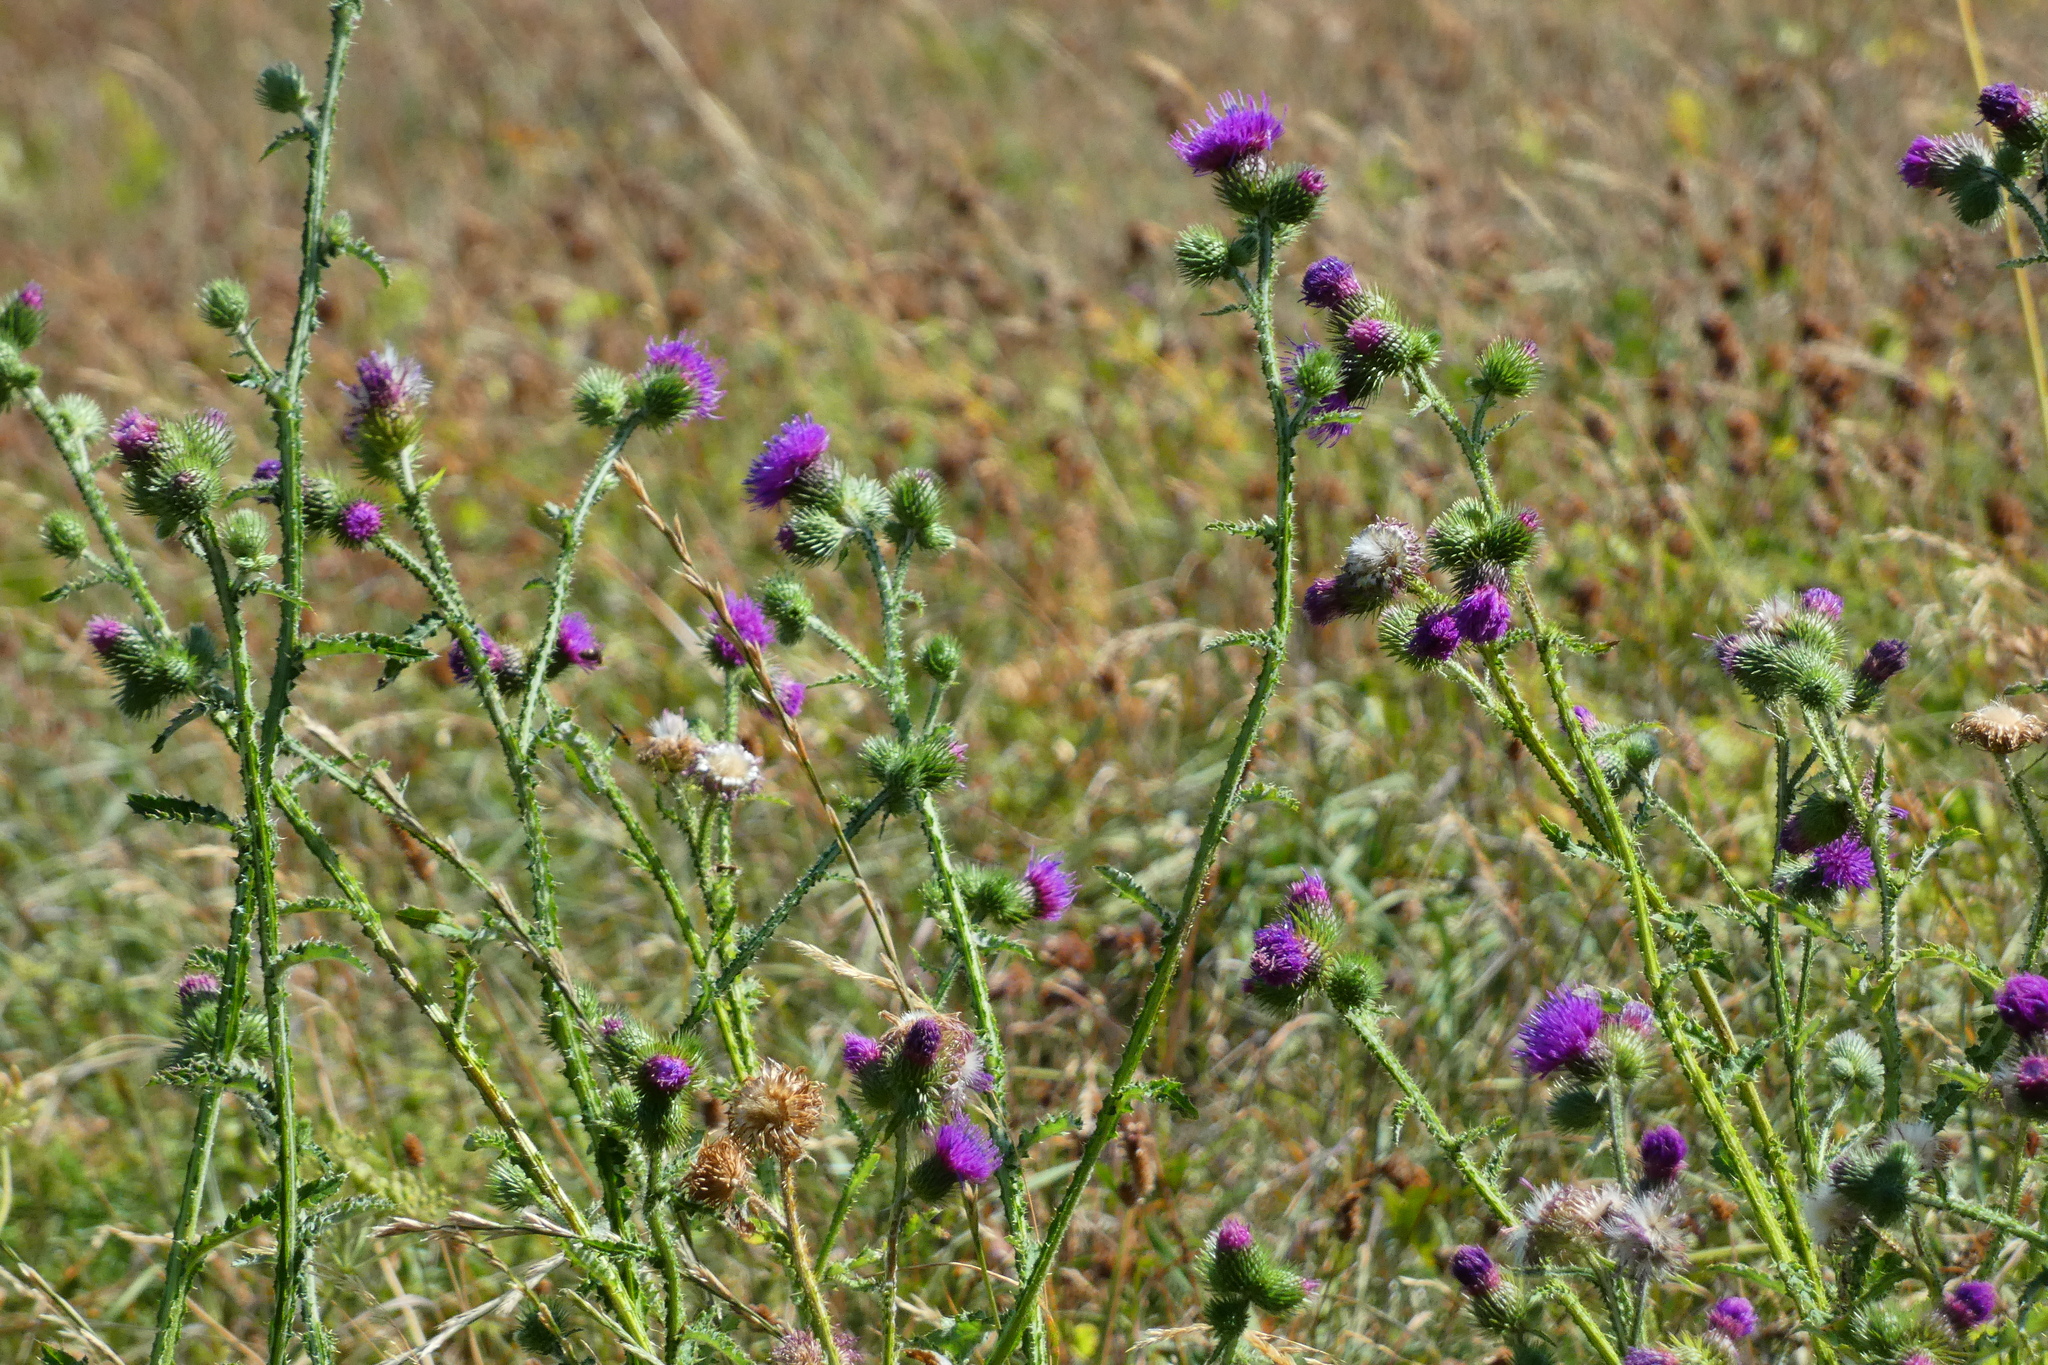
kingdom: Plantae
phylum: Tracheophyta
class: Magnoliopsida
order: Asterales
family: Asteraceae
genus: Carduus
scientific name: Carduus acanthoides
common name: Plumeless thistle
